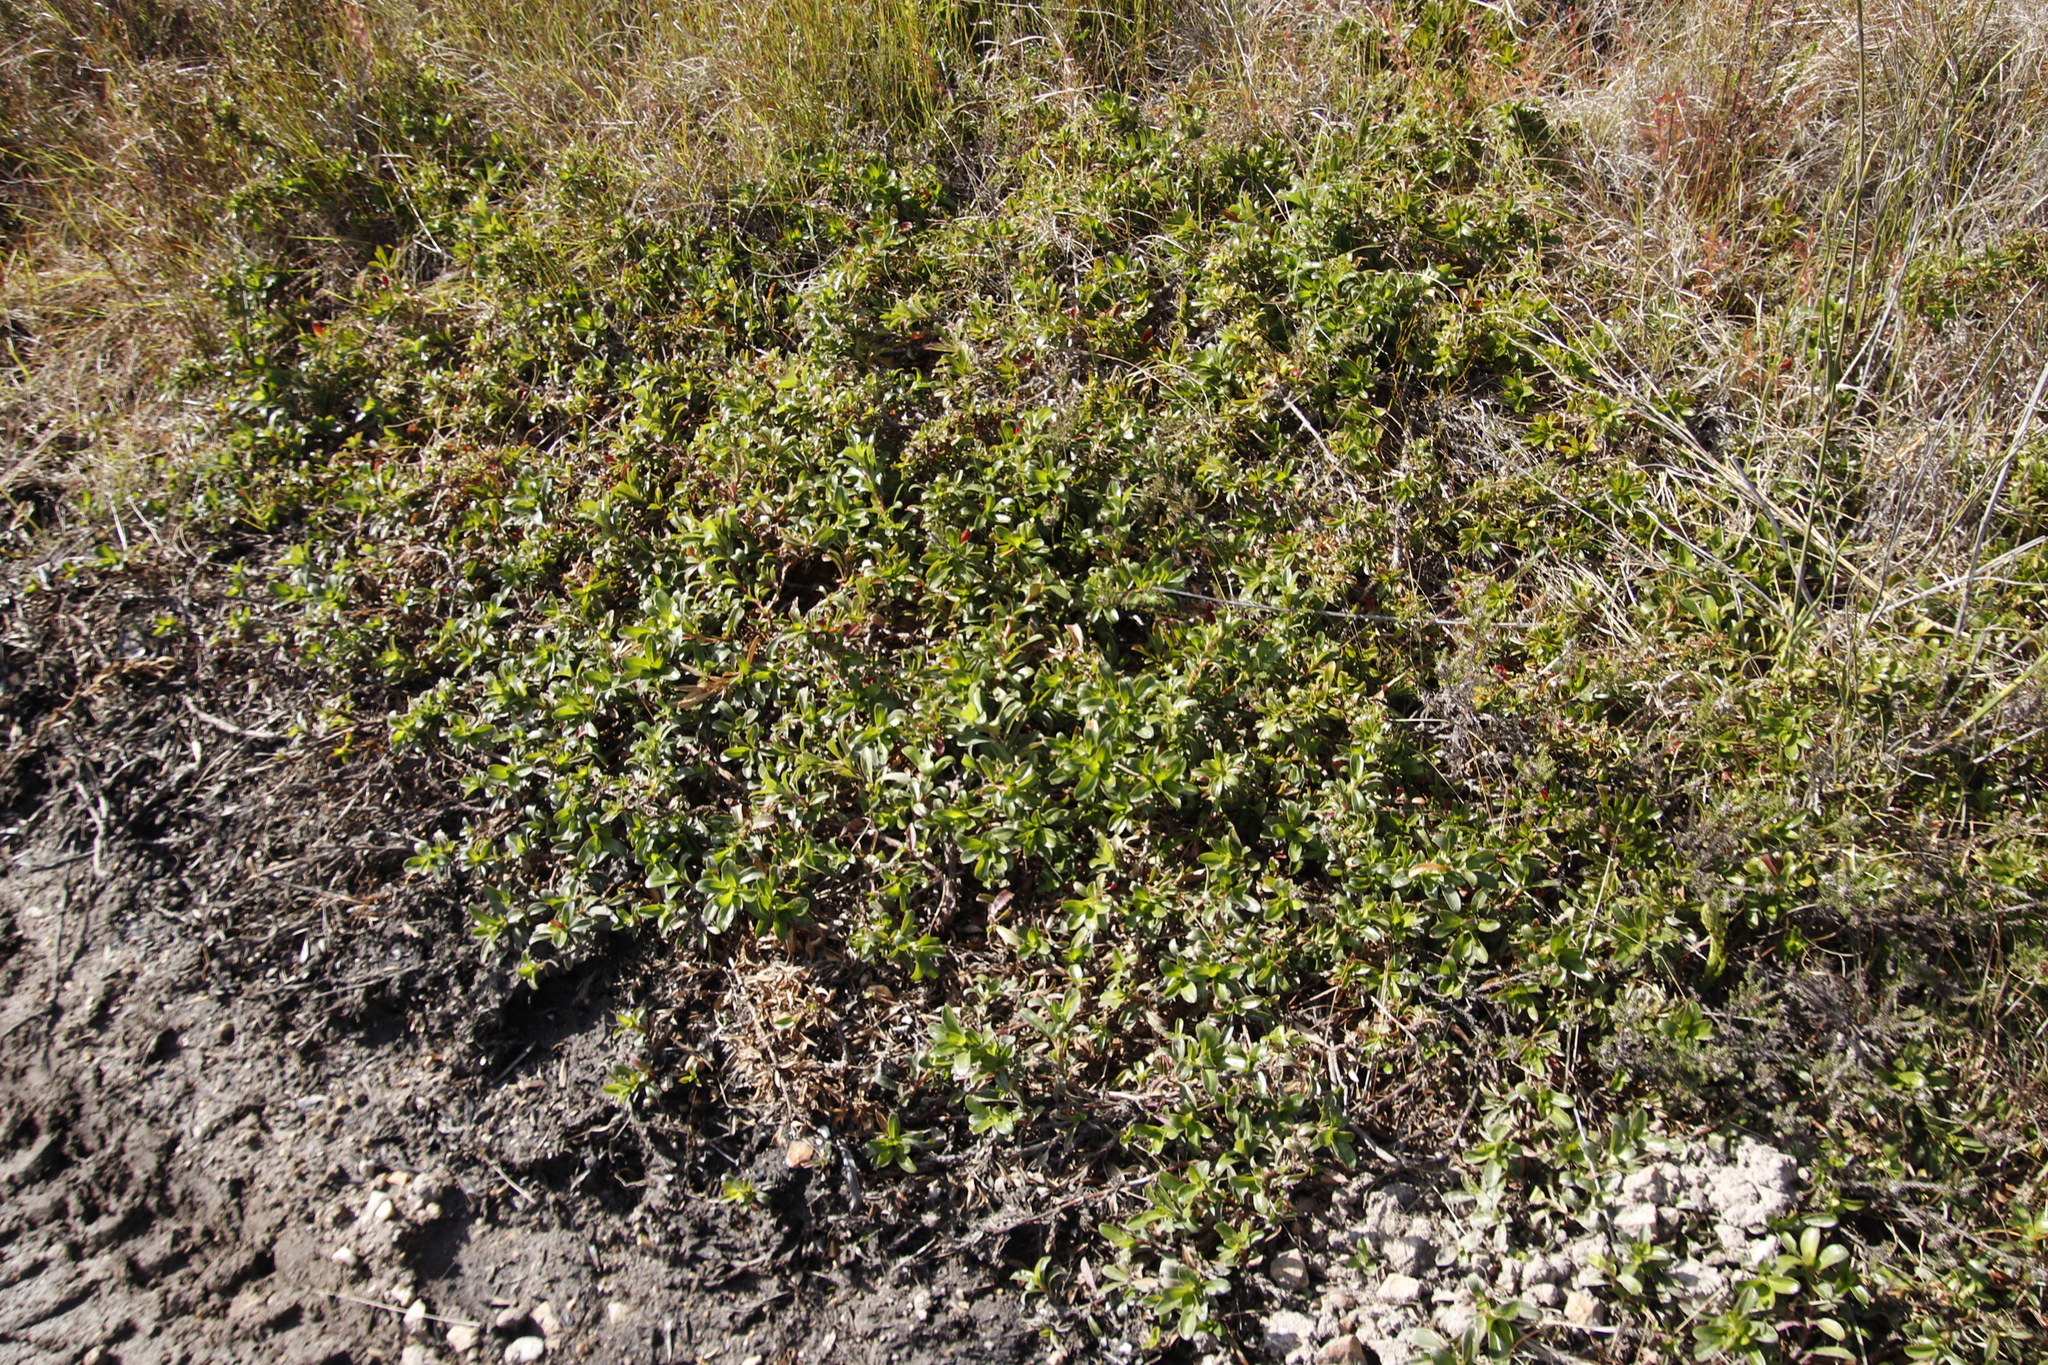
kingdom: Plantae
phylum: Tracheophyta
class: Magnoliopsida
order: Rosales
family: Rosaceae
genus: Cliffortia
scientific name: Cliffortia berberidis
